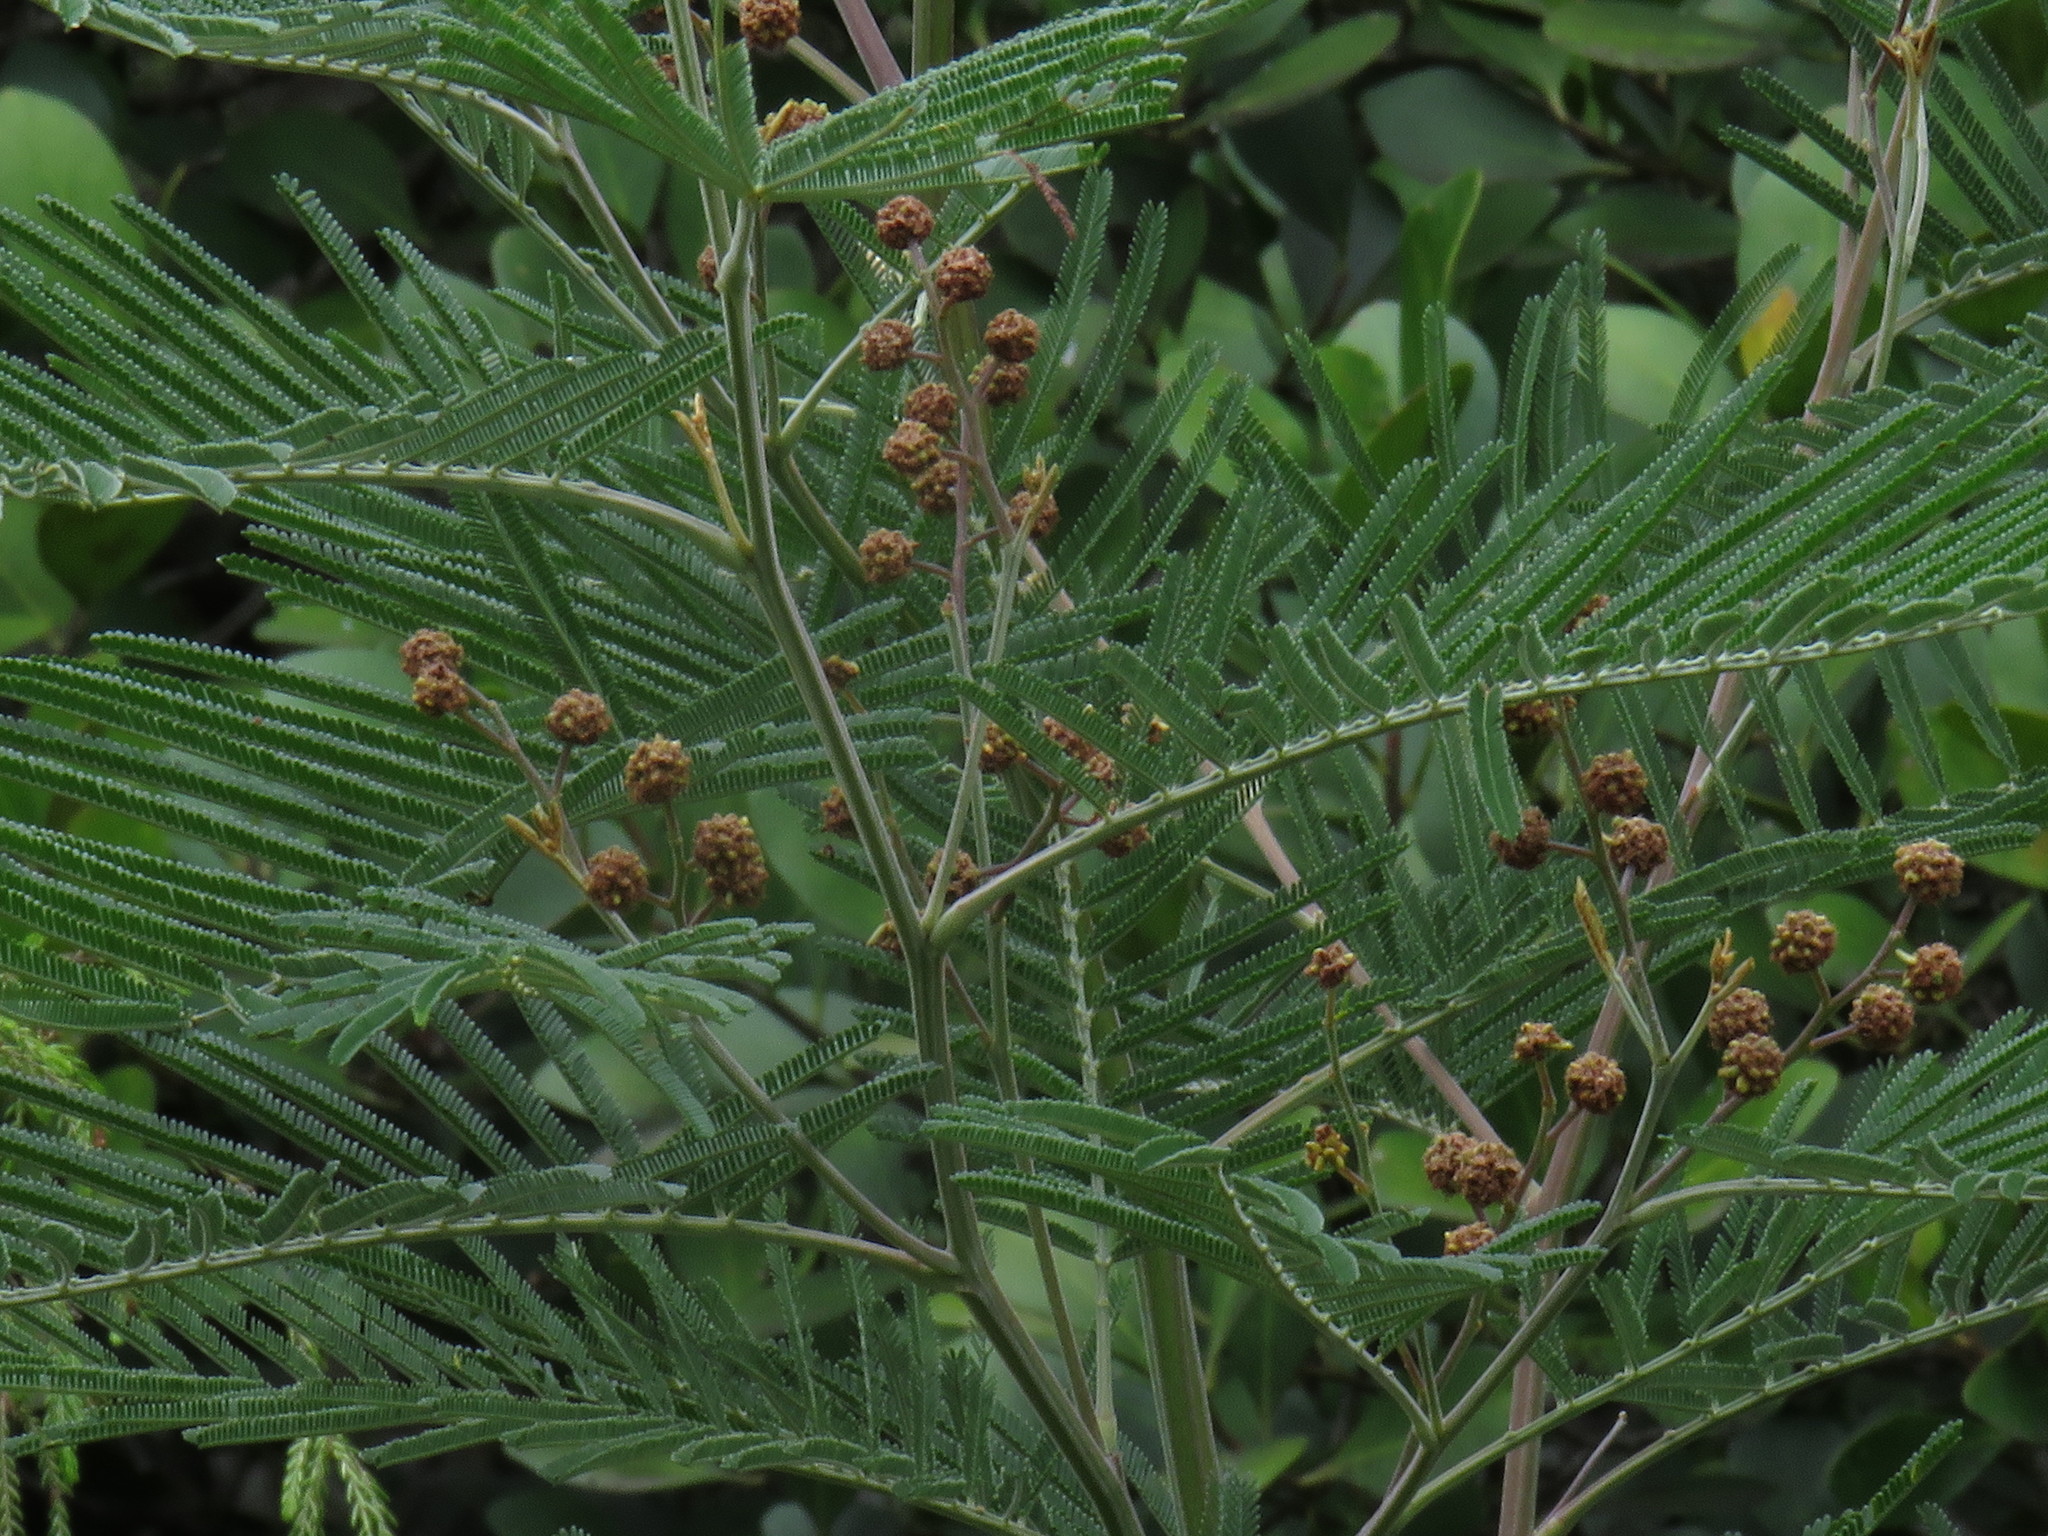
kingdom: Animalia
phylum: Arthropoda
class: Insecta
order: Diptera
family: Cecidomyiidae
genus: Dasineura
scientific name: Dasineura rubiformis
